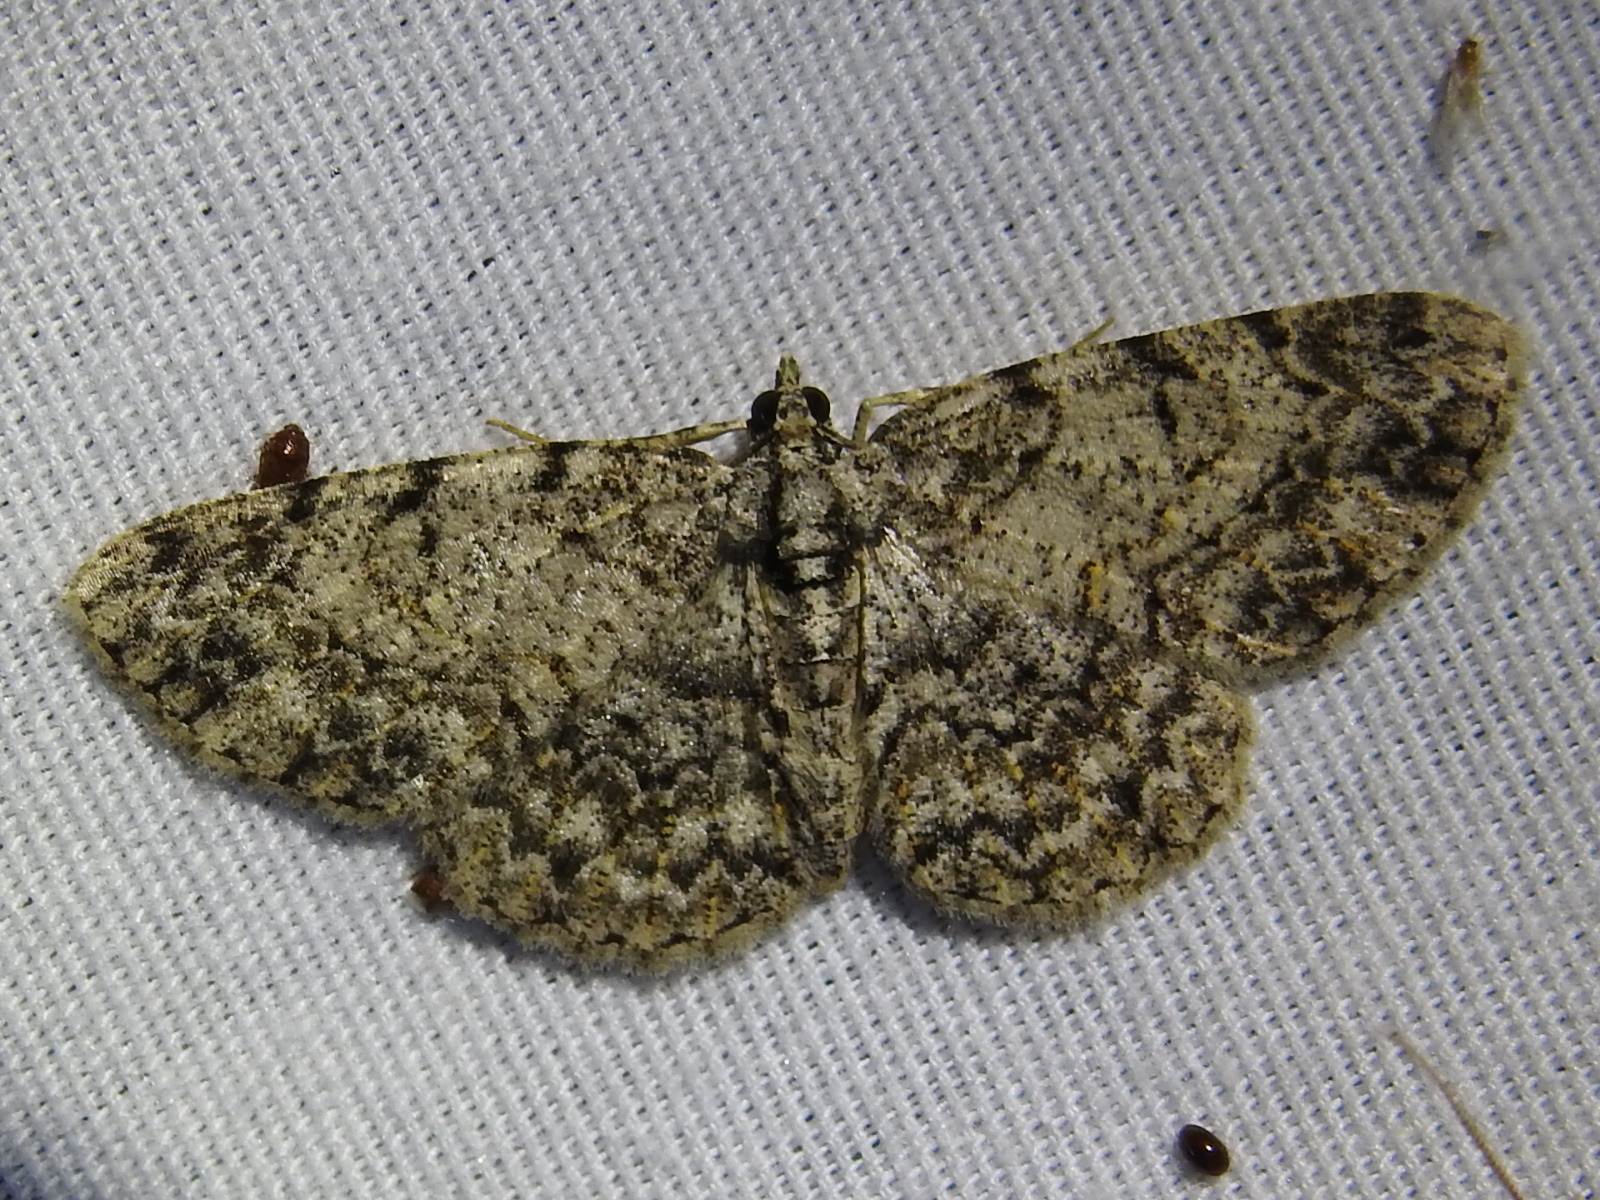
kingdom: Animalia
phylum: Arthropoda
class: Insecta
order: Lepidoptera
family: Geometridae
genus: Protoboarmia
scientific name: Protoboarmia porcelaria
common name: Porcelain gray
